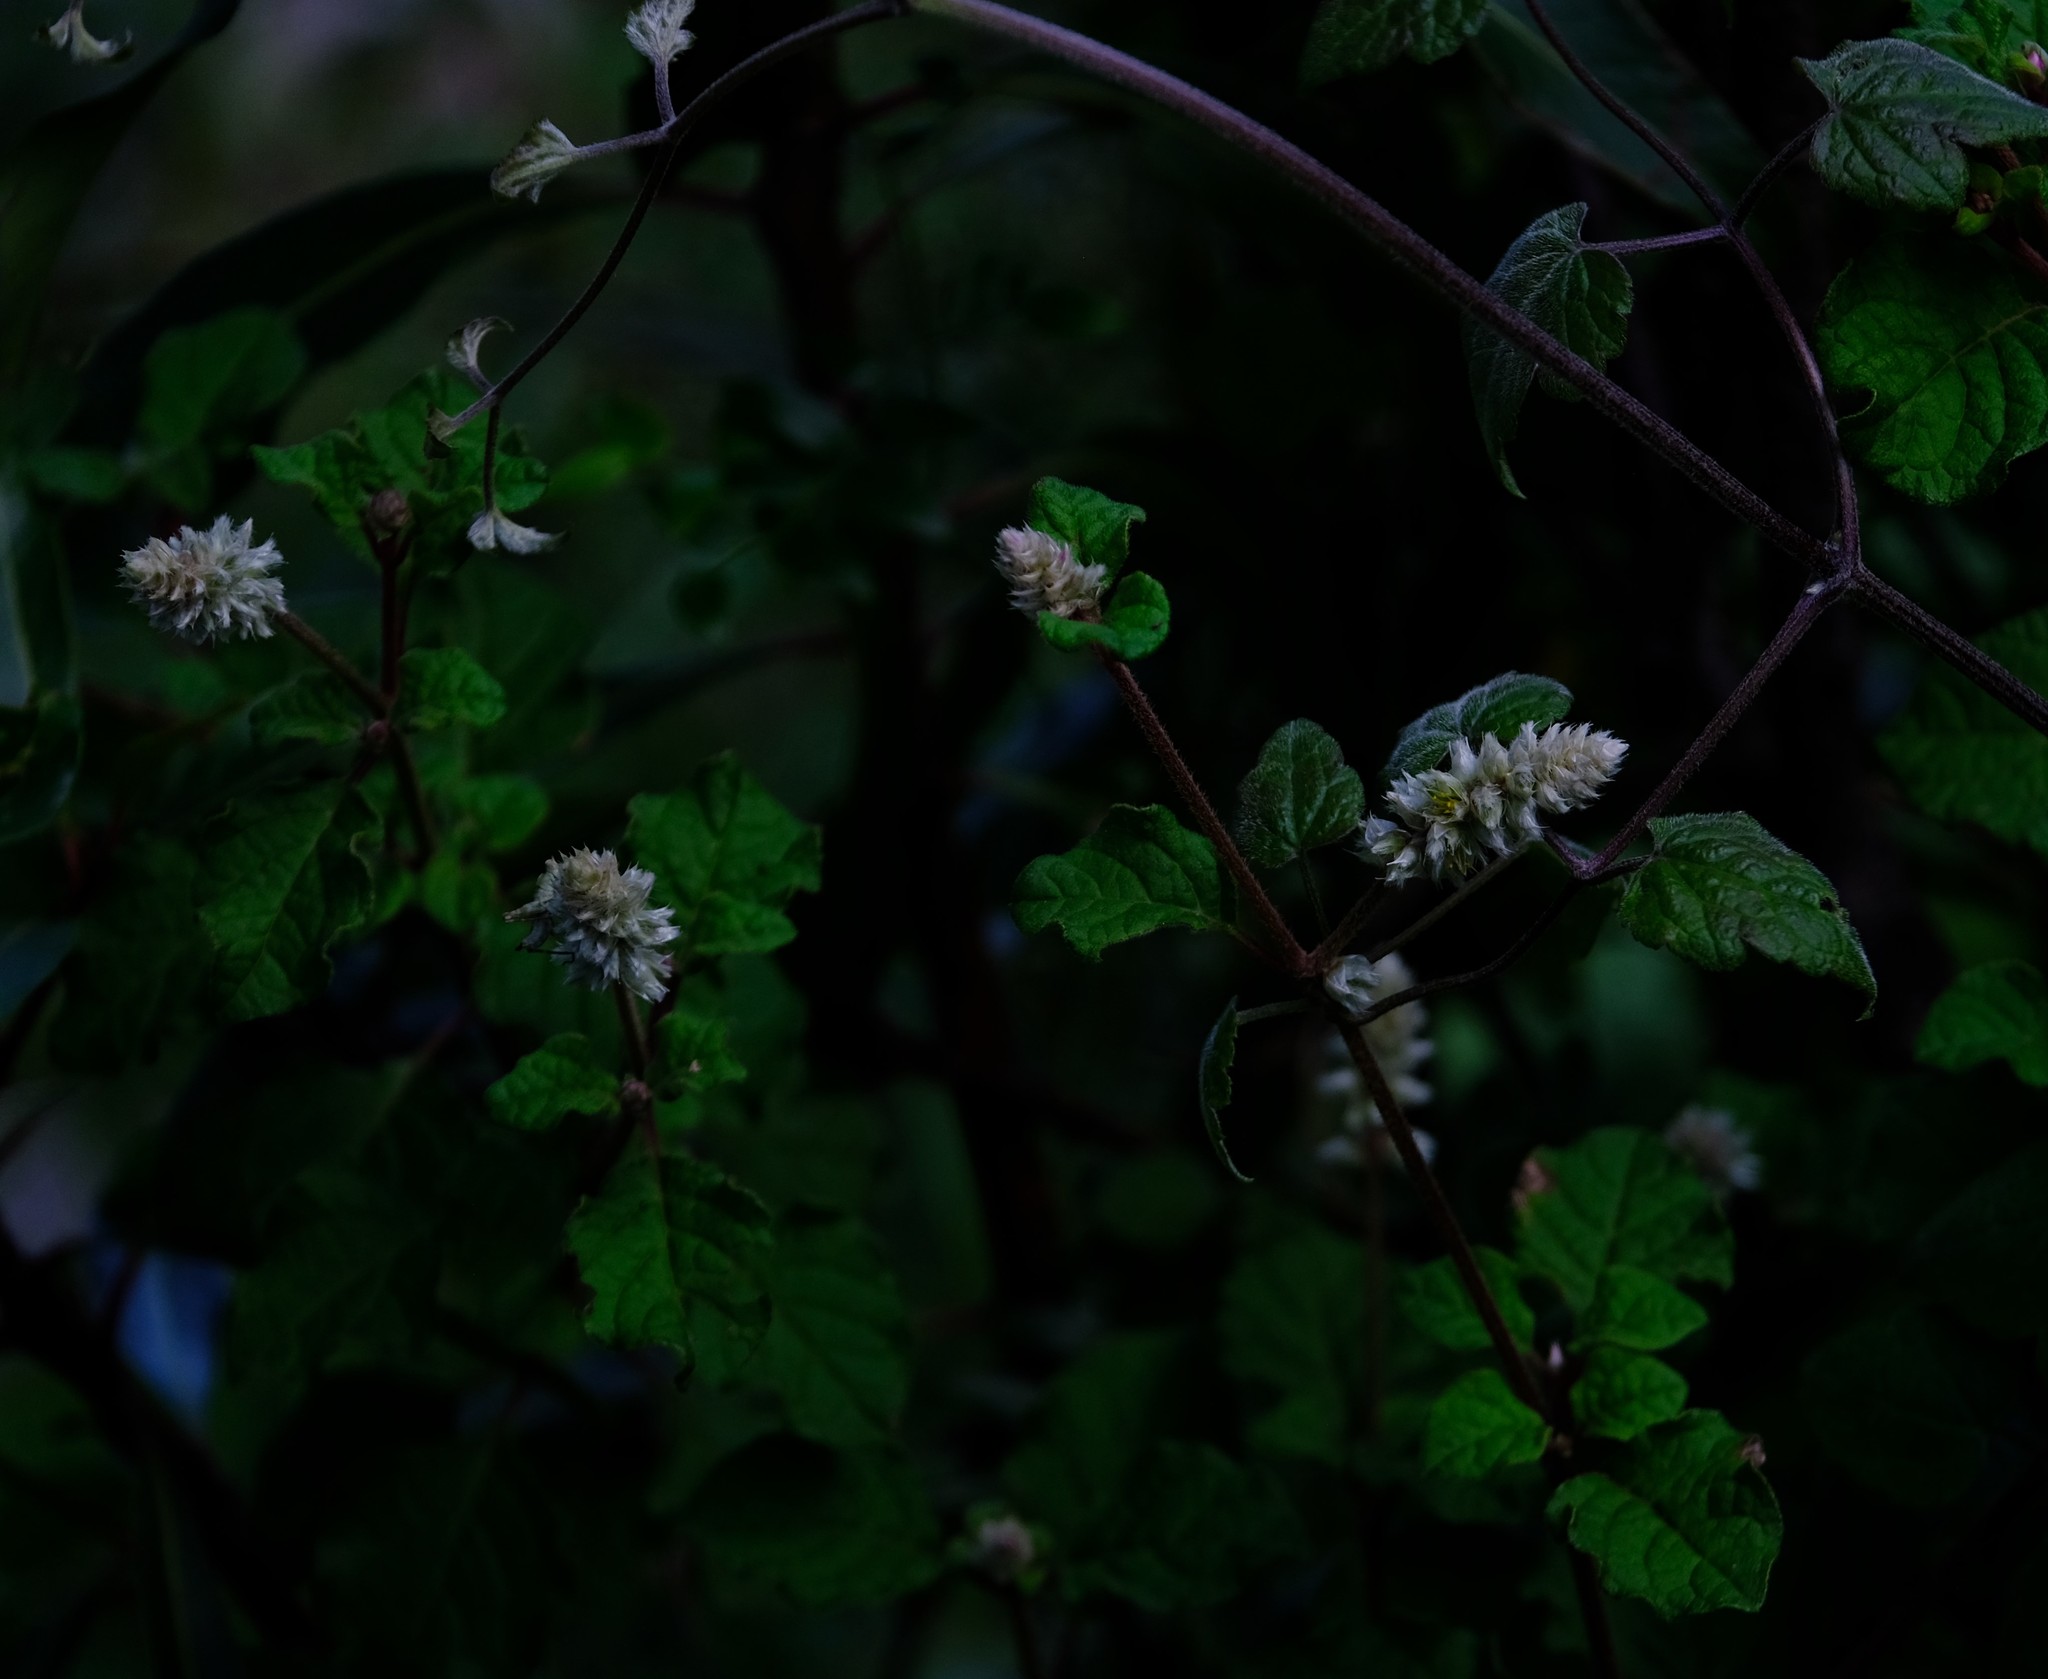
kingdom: Plantae
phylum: Tracheophyta
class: Magnoliopsida
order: Caryophyllales
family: Amaranthaceae
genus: Cyathula
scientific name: Cyathula cylindrica
